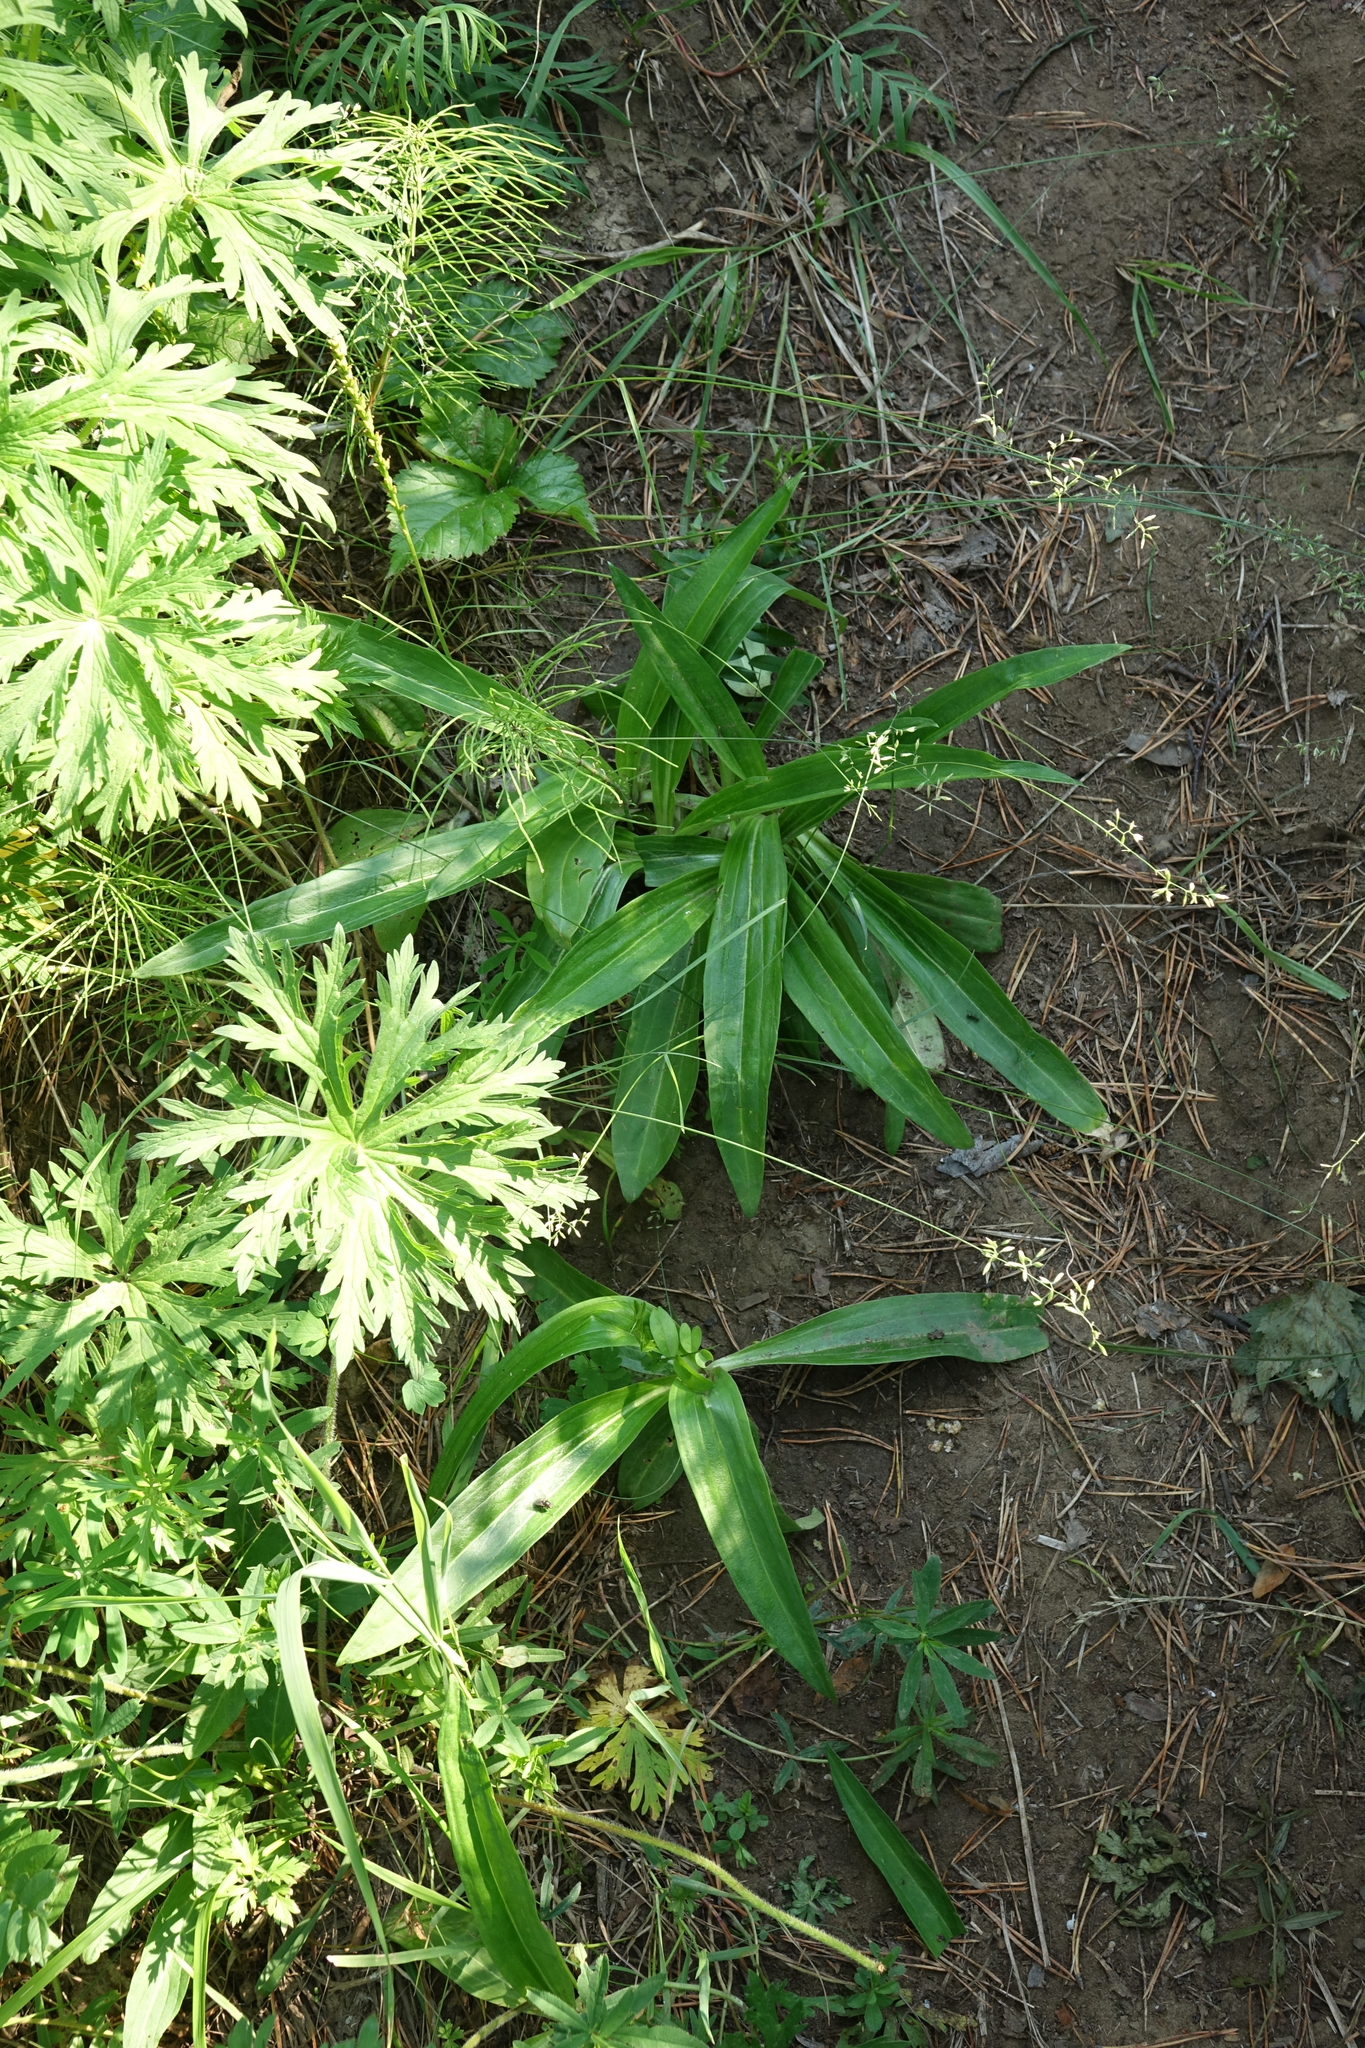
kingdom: Plantae
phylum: Tracheophyta
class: Magnoliopsida
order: Gentianales
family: Gentianaceae
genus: Gentiana
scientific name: Gentiana macrophylla
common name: Large-leaf gentian
